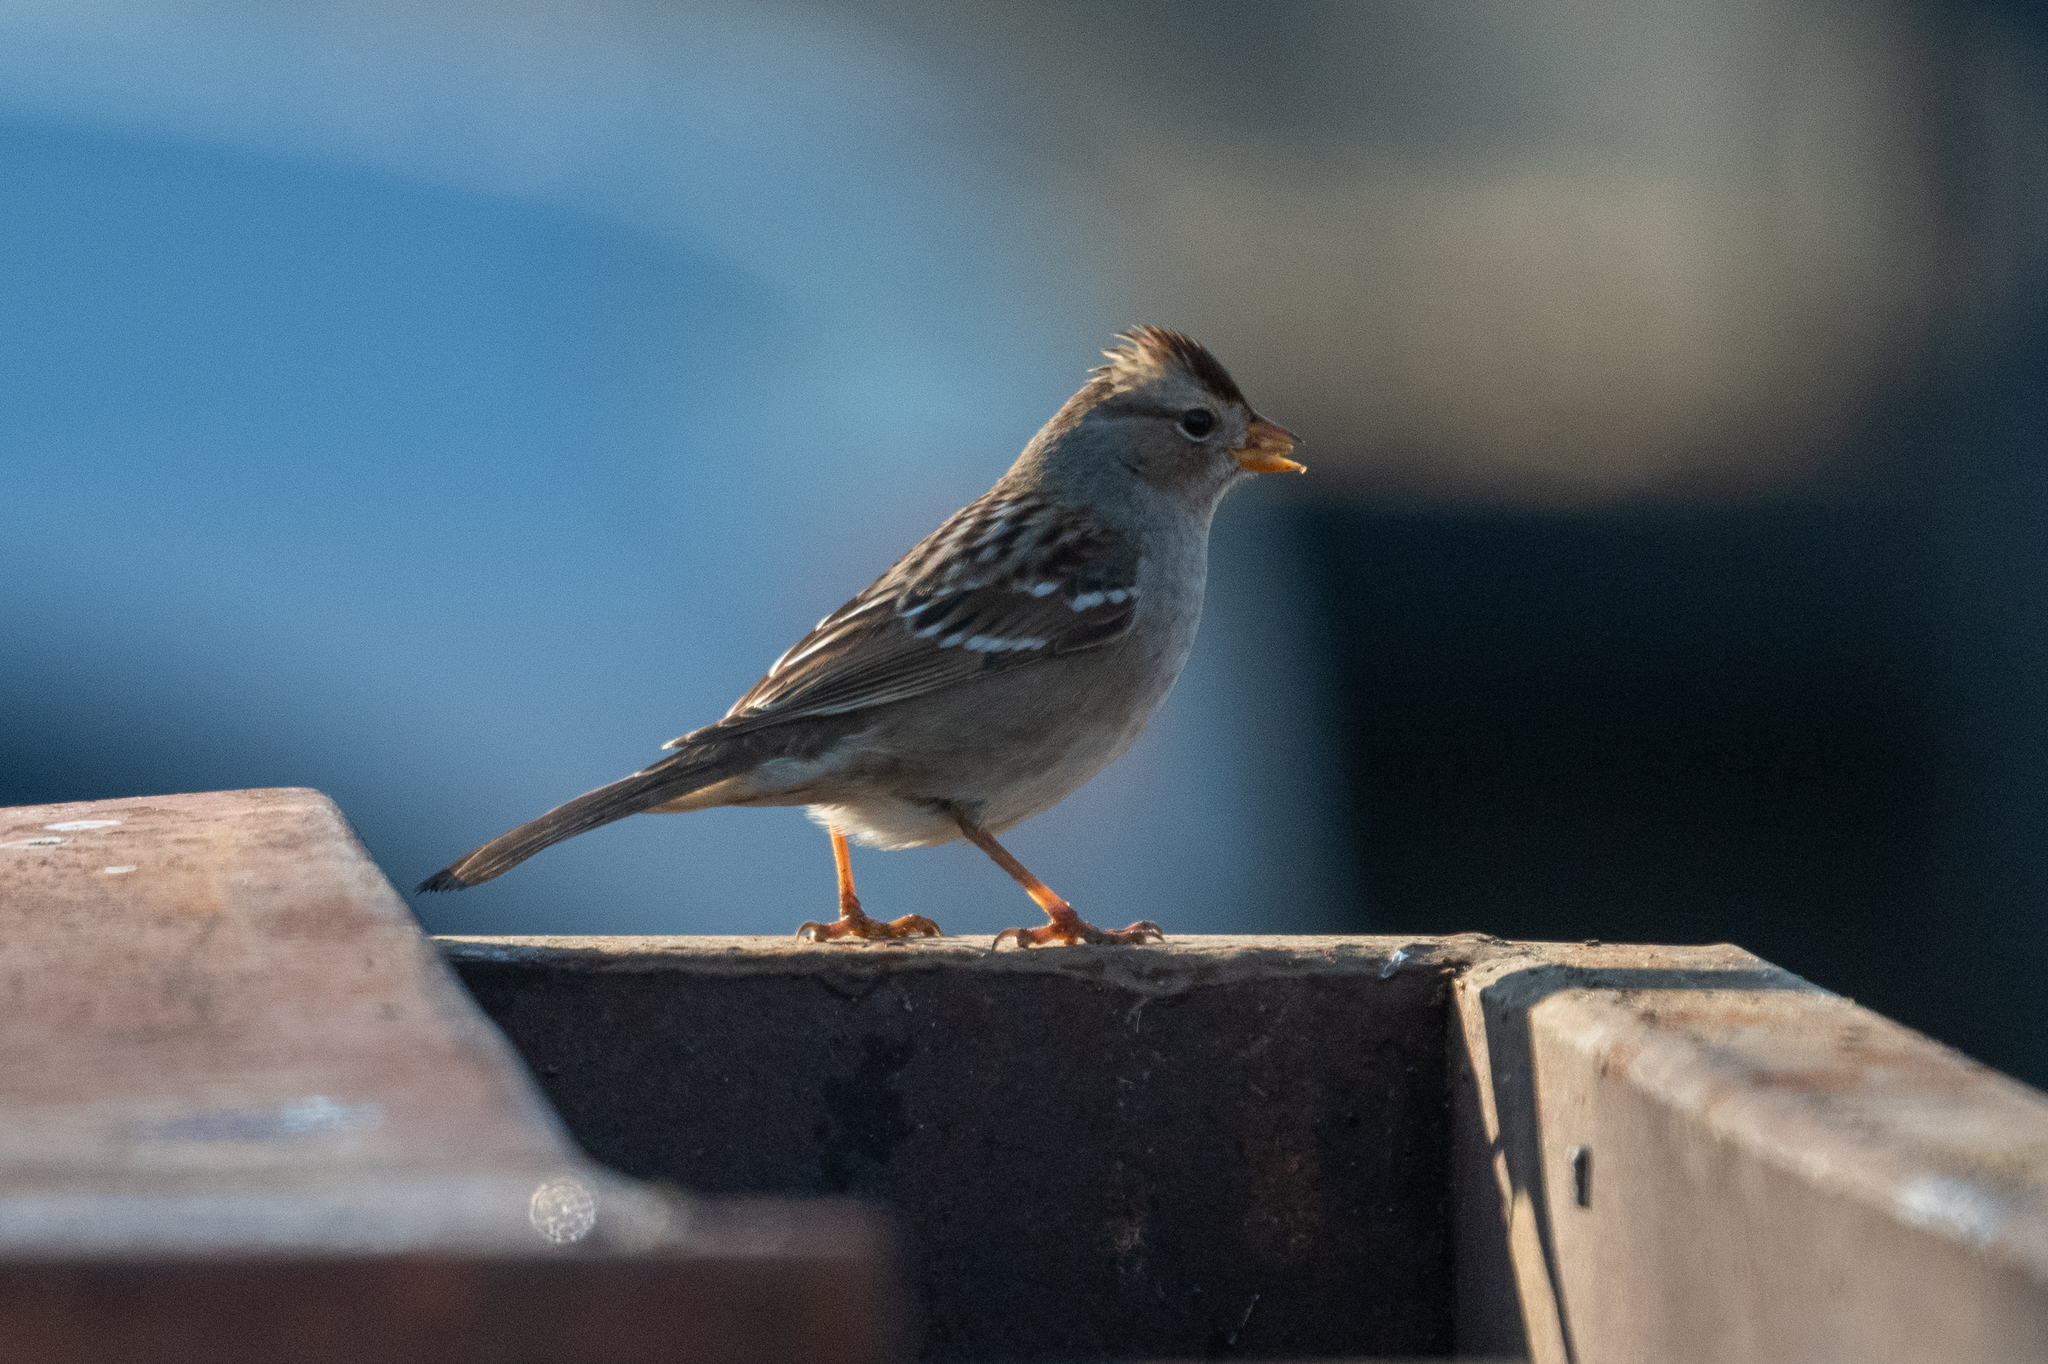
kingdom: Animalia
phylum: Chordata
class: Aves
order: Passeriformes
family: Passerellidae
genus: Zonotrichia
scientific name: Zonotrichia leucophrys
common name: White-crowned sparrow
